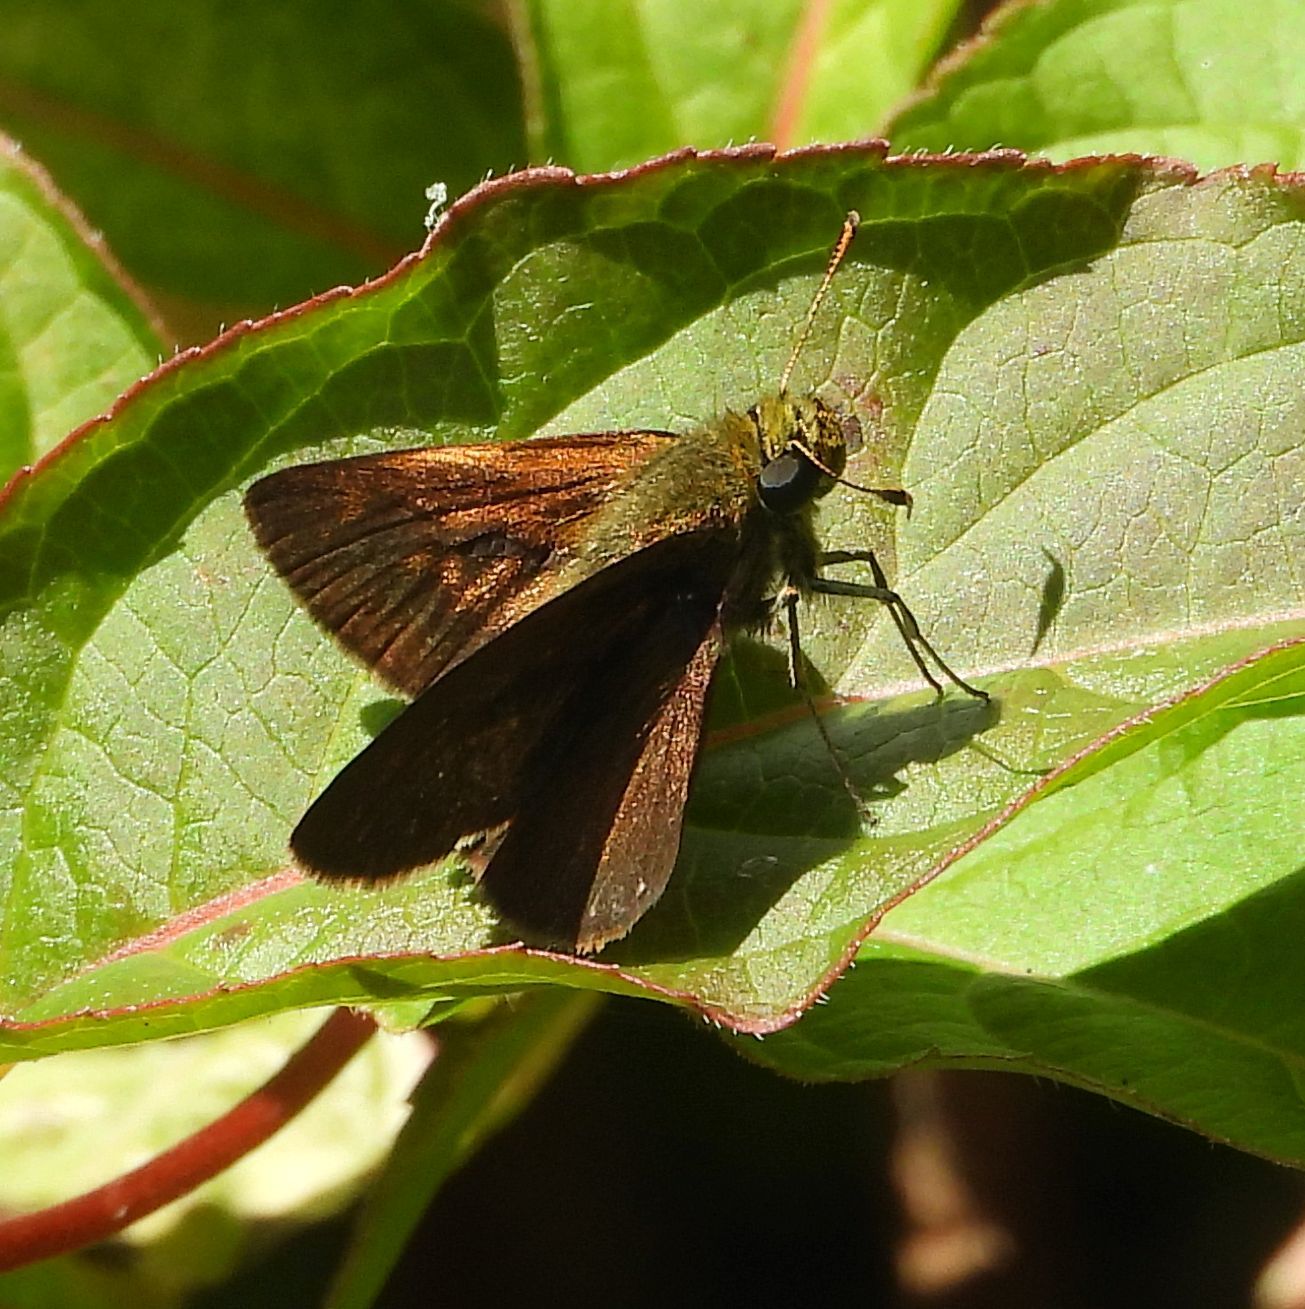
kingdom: Animalia
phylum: Arthropoda
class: Insecta
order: Lepidoptera
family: Hesperiidae
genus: Euphyes
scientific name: Euphyes vestris
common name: Dun skipper
